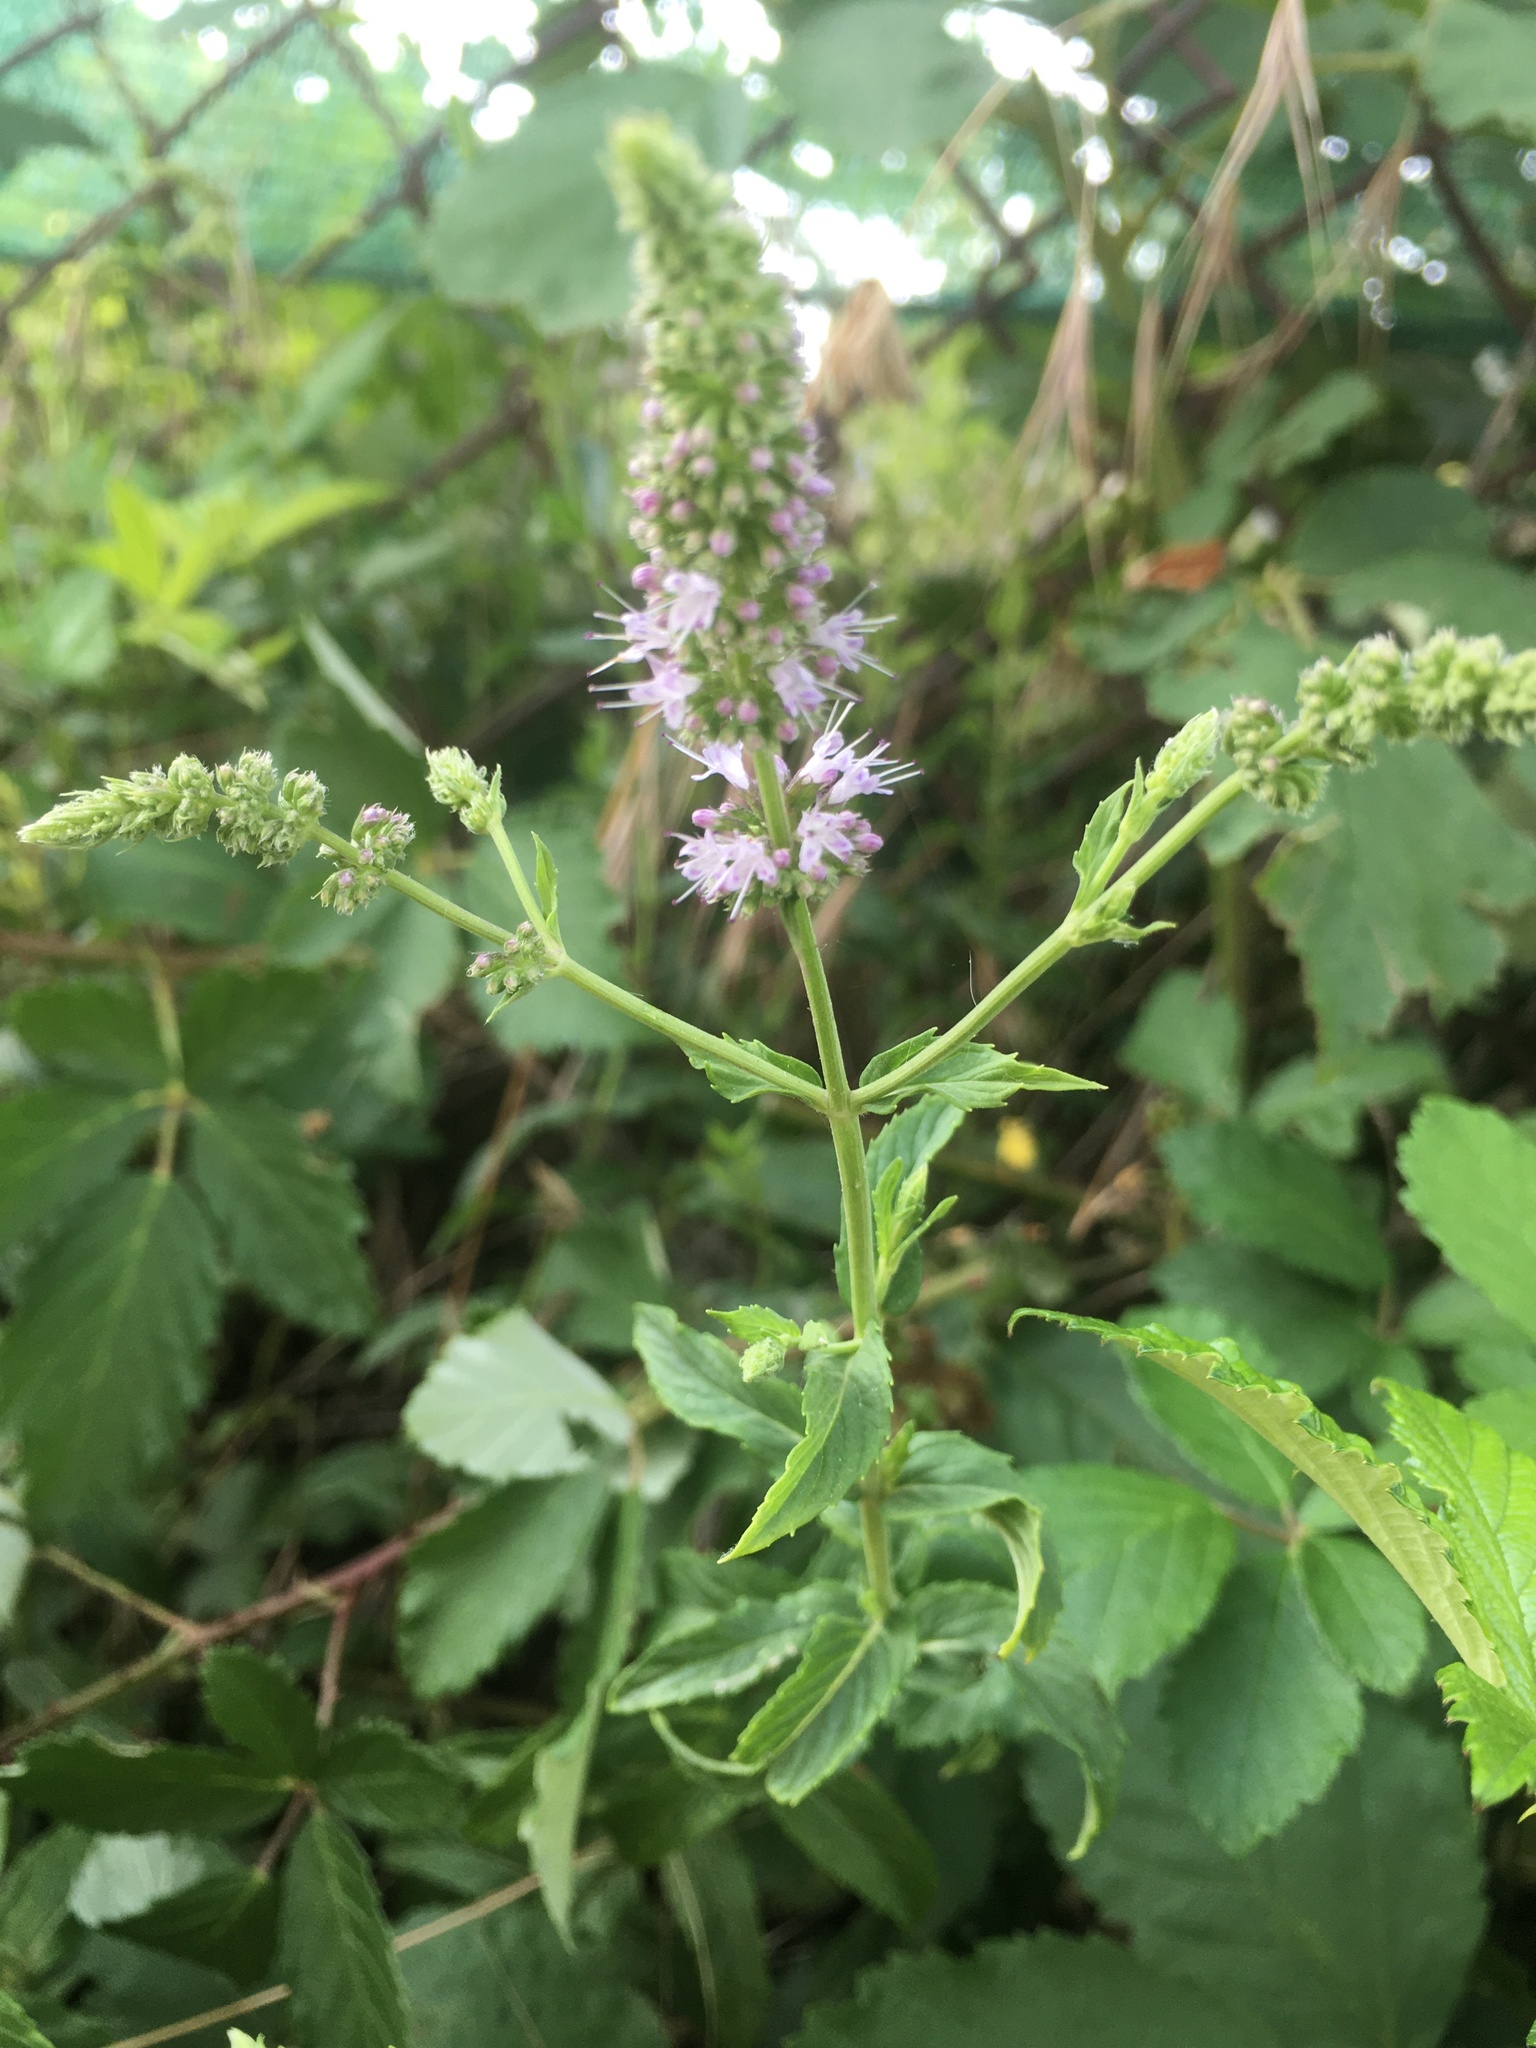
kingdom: Plantae
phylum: Tracheophyta
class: Magnoliopsida
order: Lamiales
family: Lamiaceae
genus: Mentha
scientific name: Mentha longifolia
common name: Horse mint
